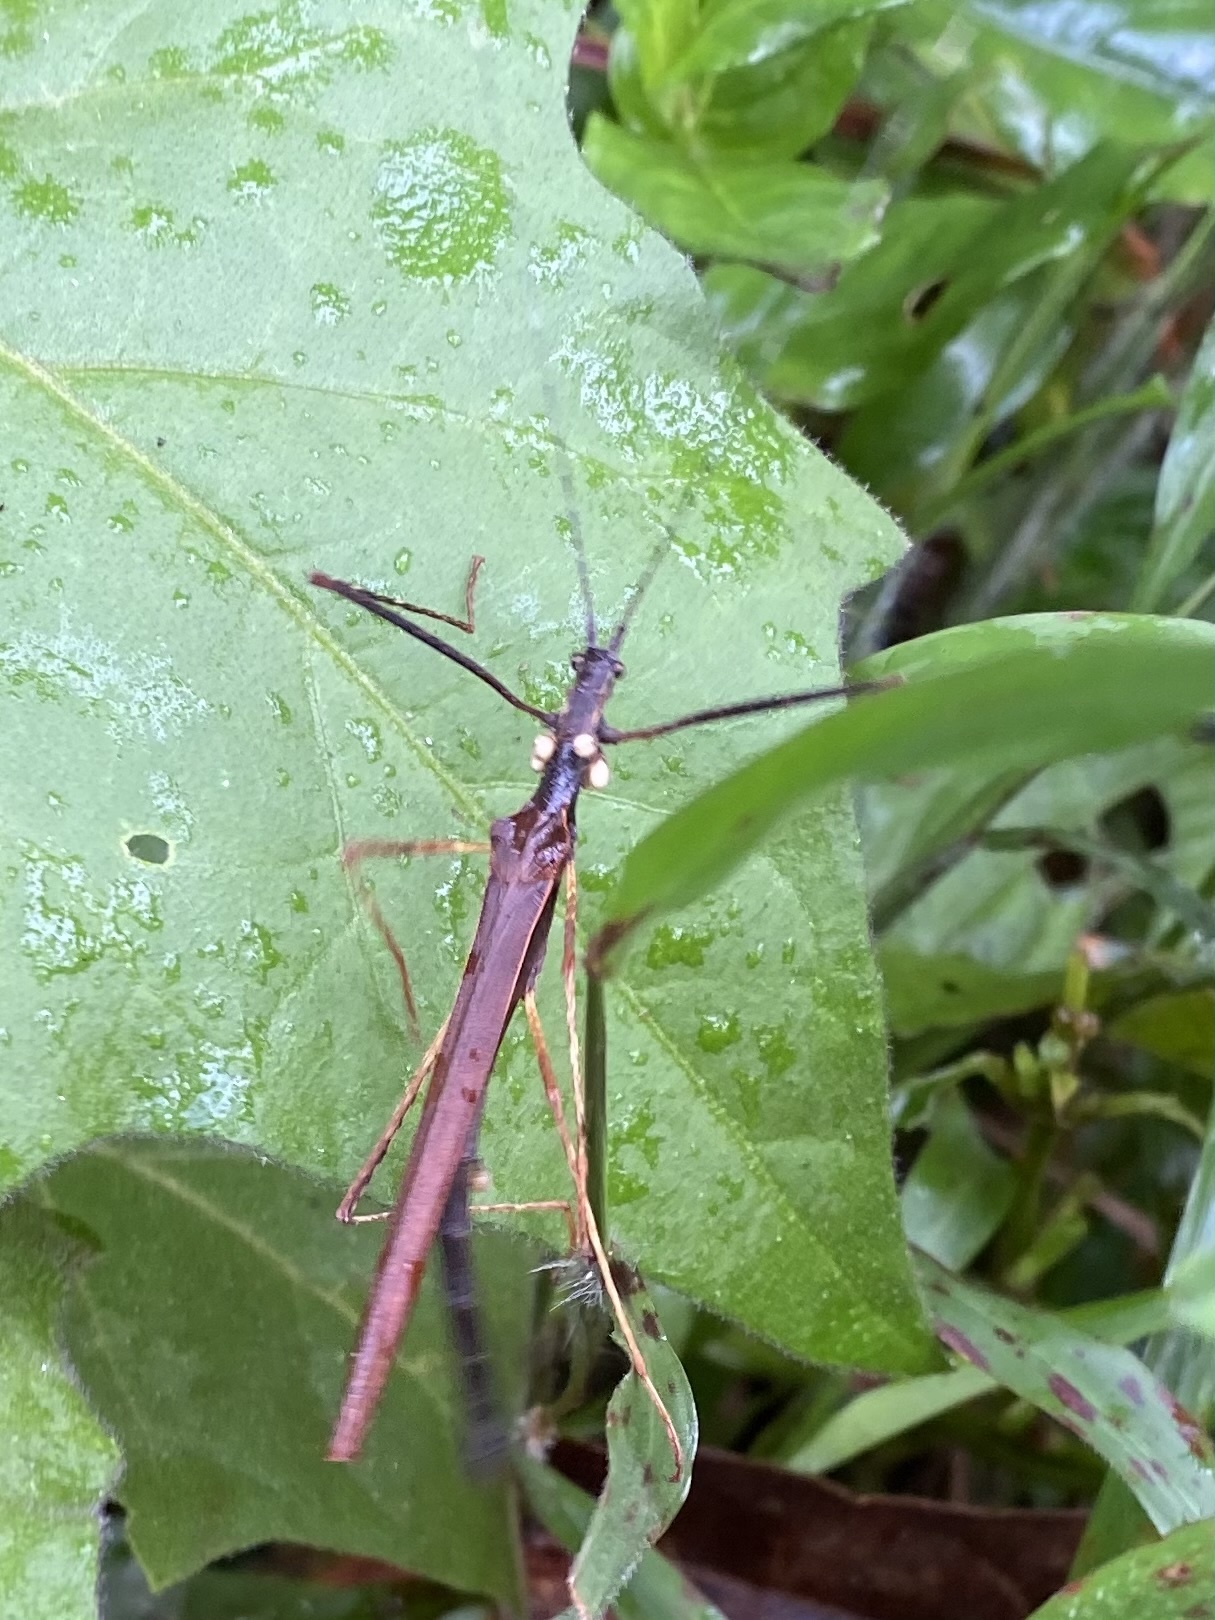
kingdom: Animalia
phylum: Arthropoda
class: Insecta
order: Phasmida
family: Pseudophasmatidae
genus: Pseudophasma
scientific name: Pseudophasma unicolor
